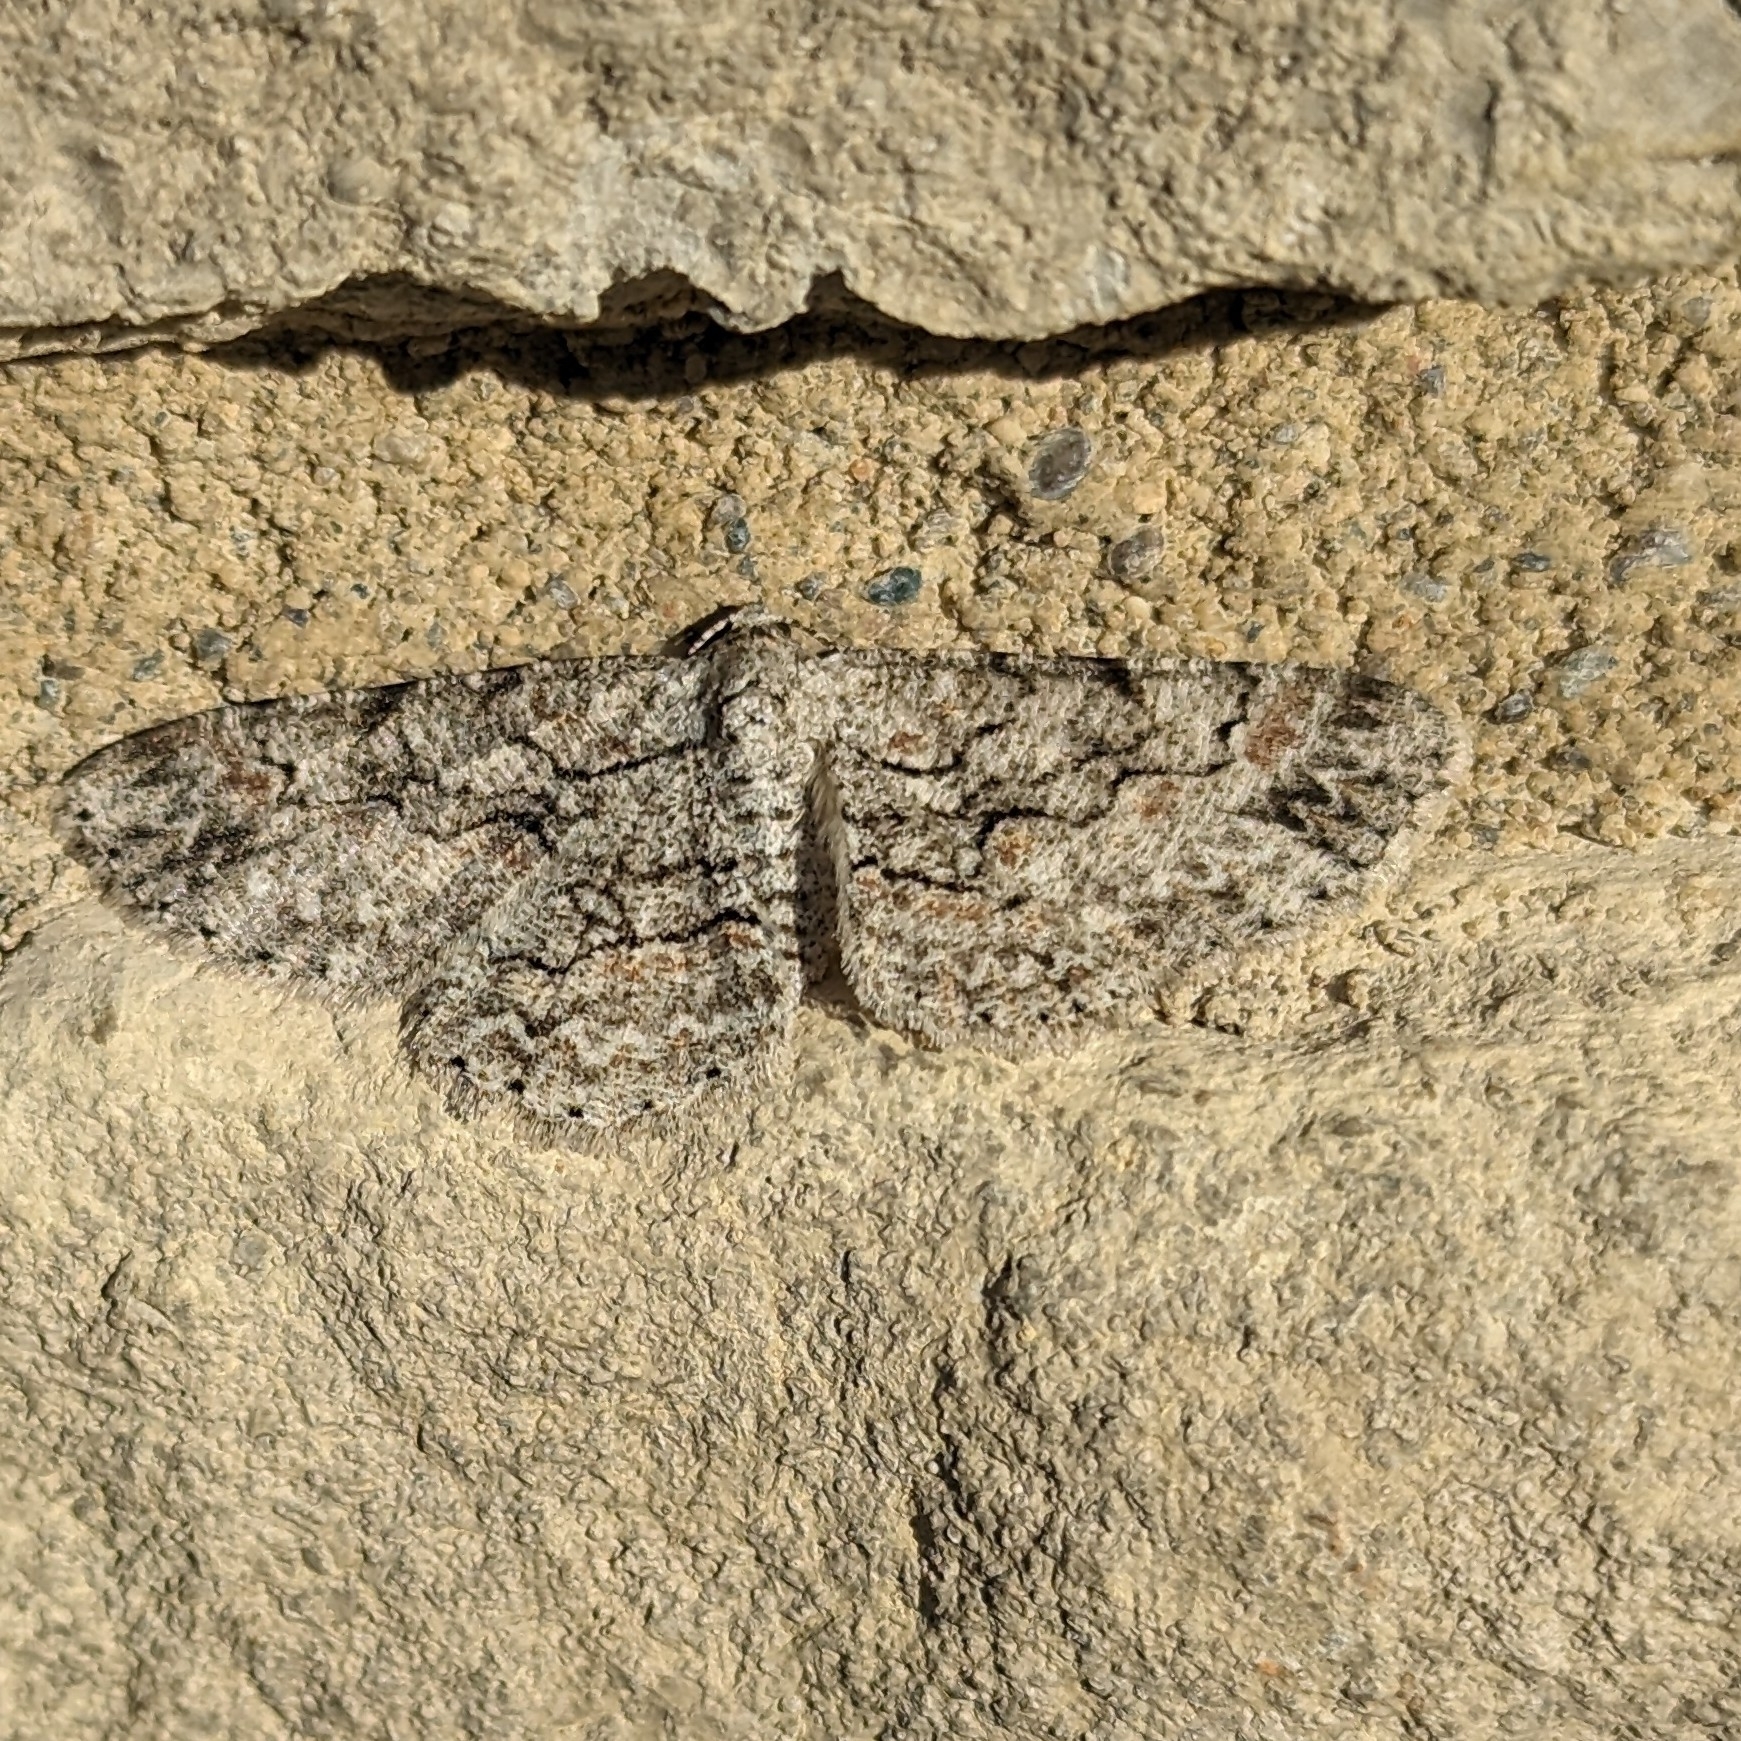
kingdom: Animalia
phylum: Arthropoda
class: Insecta
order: Lepidoptera
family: Geometridae
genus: Iridopsis
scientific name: Iridopsis defectaria
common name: Brown-shaded gray
